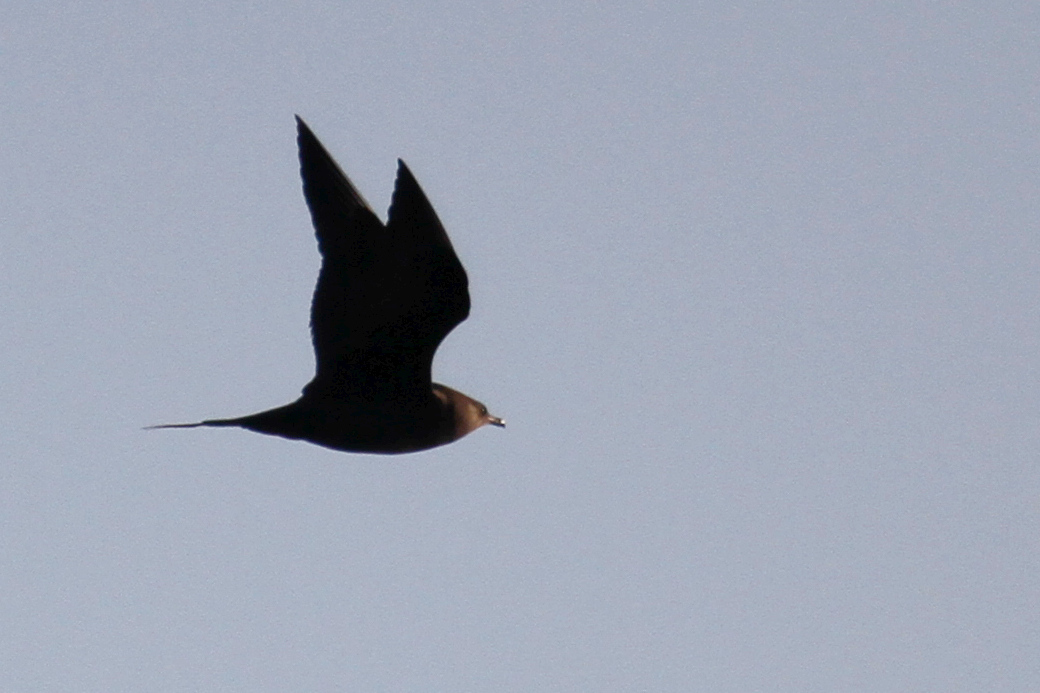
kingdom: Animalia
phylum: Chordata
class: Aves
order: Charadriiformes
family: Stercorariidae
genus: Stercorarius
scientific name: Stercorarius parasiticus
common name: Parasitic jaeger
